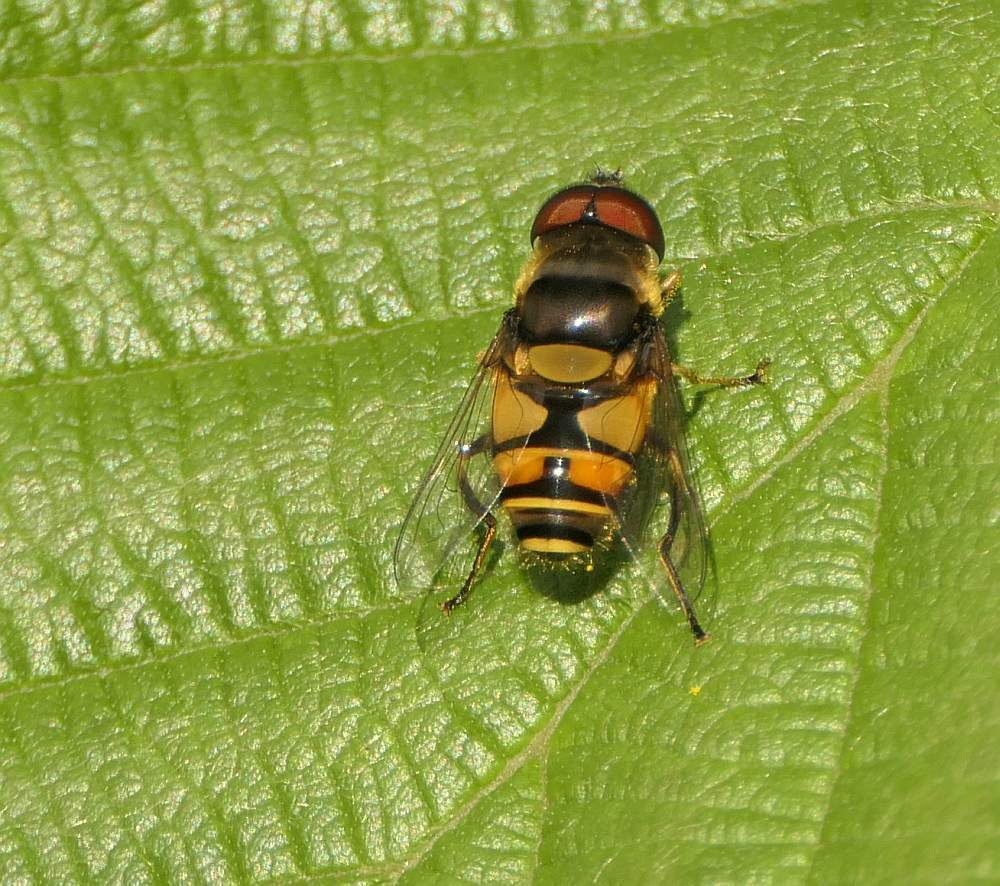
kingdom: Animalia
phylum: Arthropoda
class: Insecta
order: Diptera
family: Syrphidae
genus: Eristalis
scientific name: Eristalis transversa
